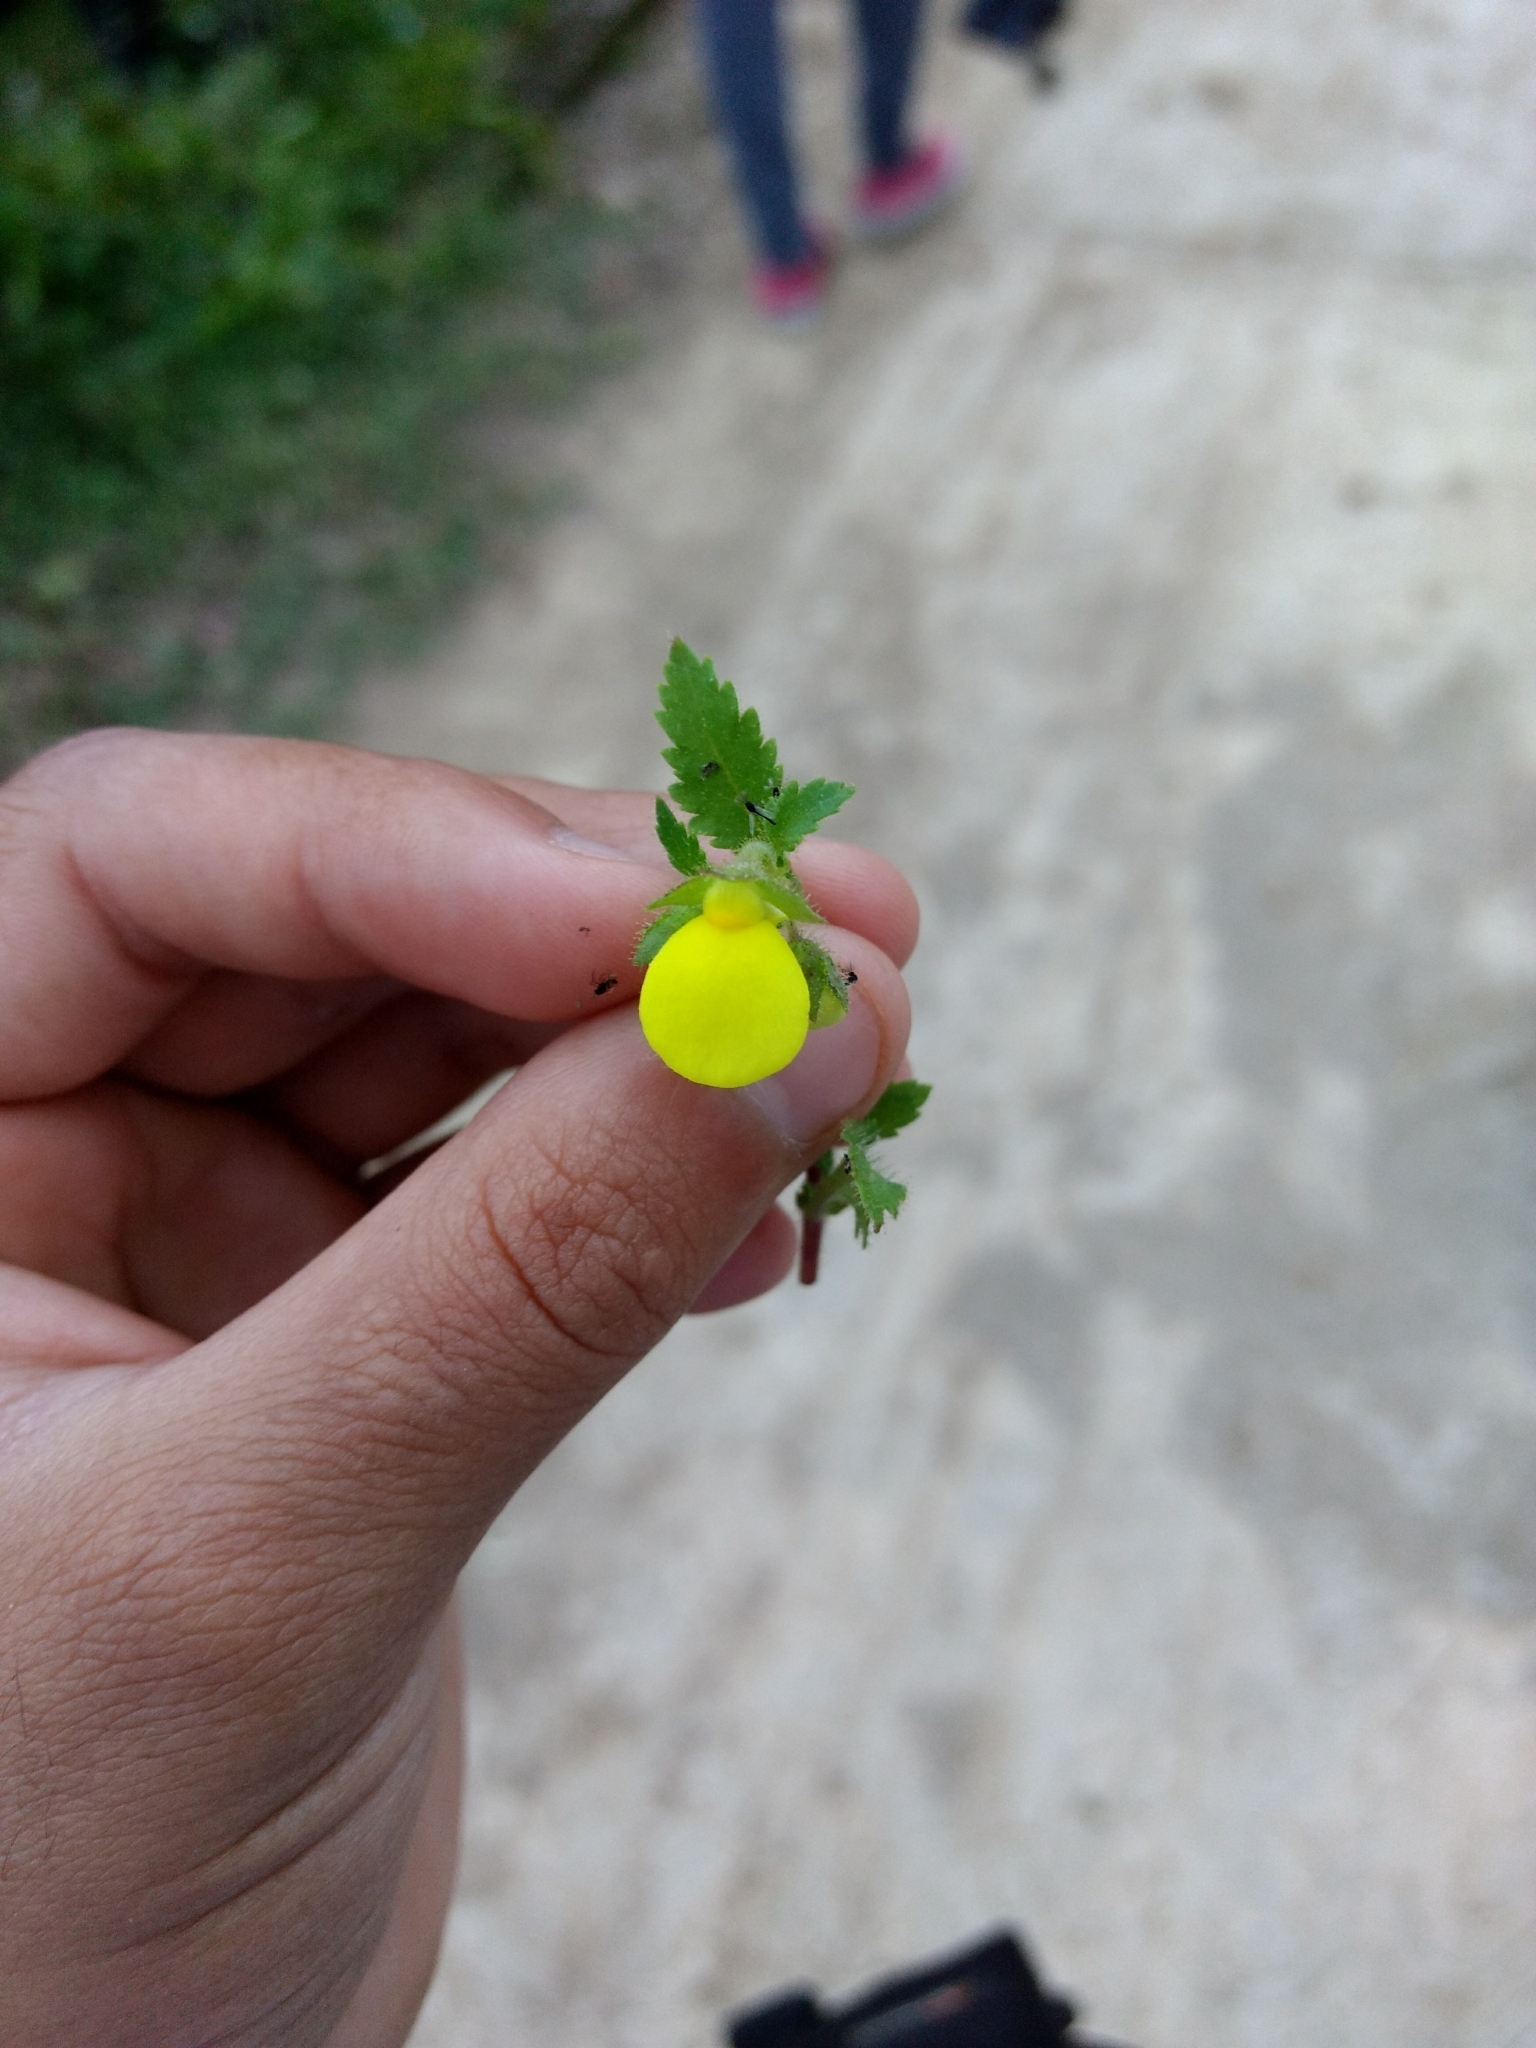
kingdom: Plantae
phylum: Tracheophyta
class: Magnoliopsida
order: Lamiales
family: Calceolariaceae
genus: Calceolaria
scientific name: Calceolaria tripartita
